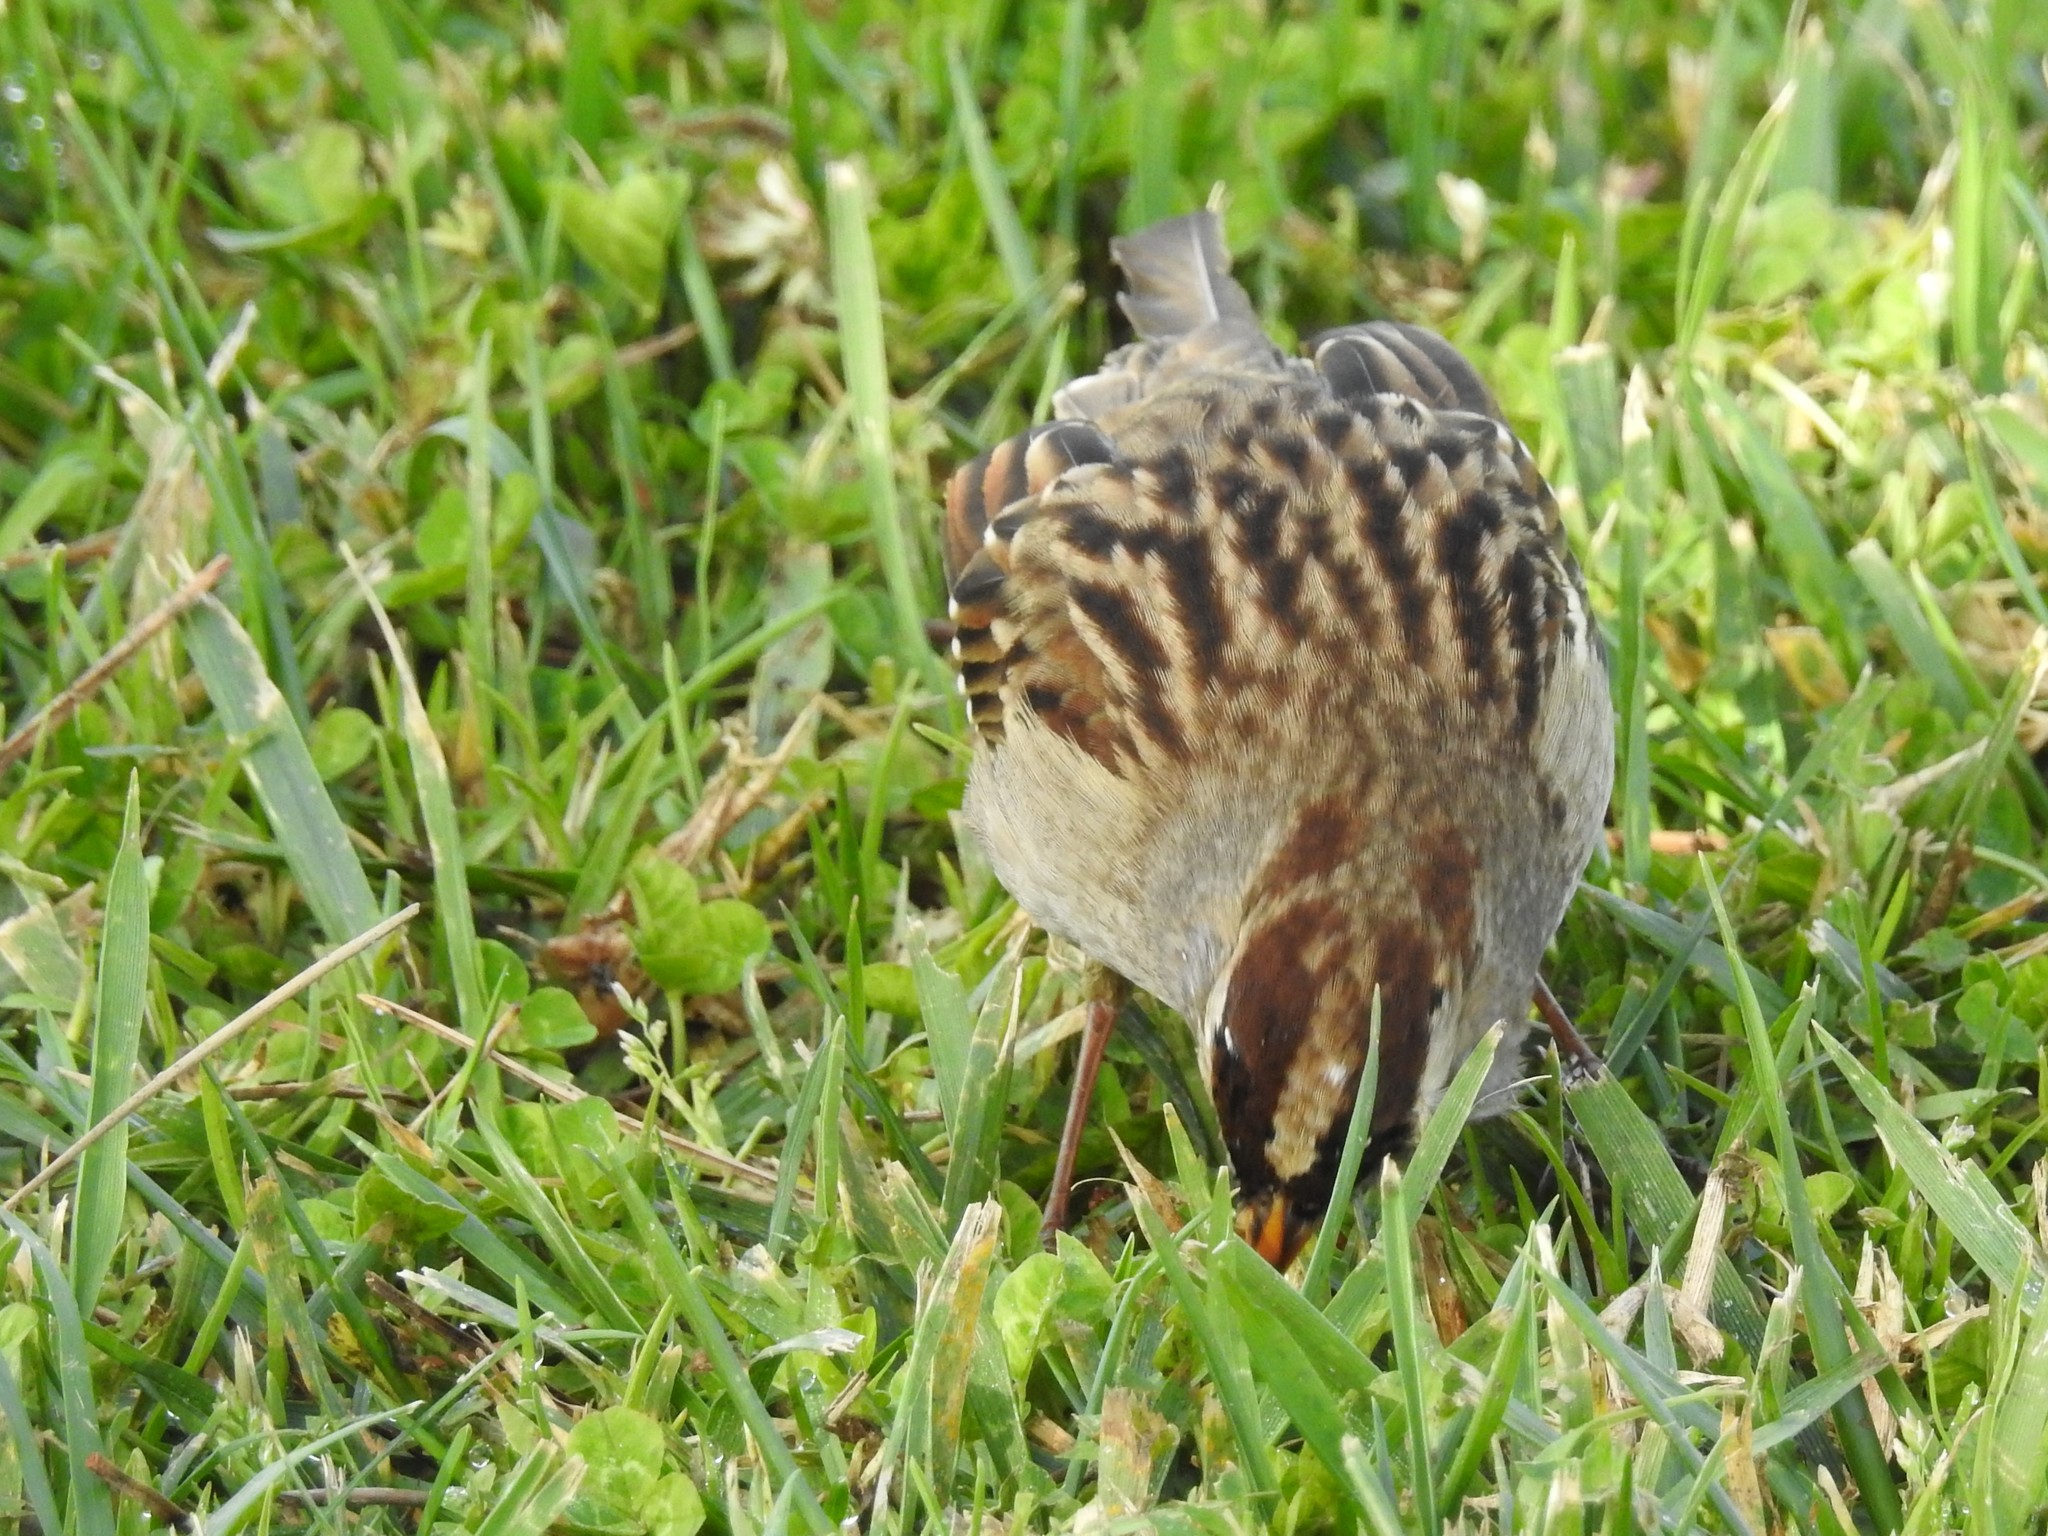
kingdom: Animalia
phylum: Chordata
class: Aves
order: Passeriformes
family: Passerellidae
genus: Zonotrichia
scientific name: Zonotrichia leucophrys
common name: White-crowned sparrow
